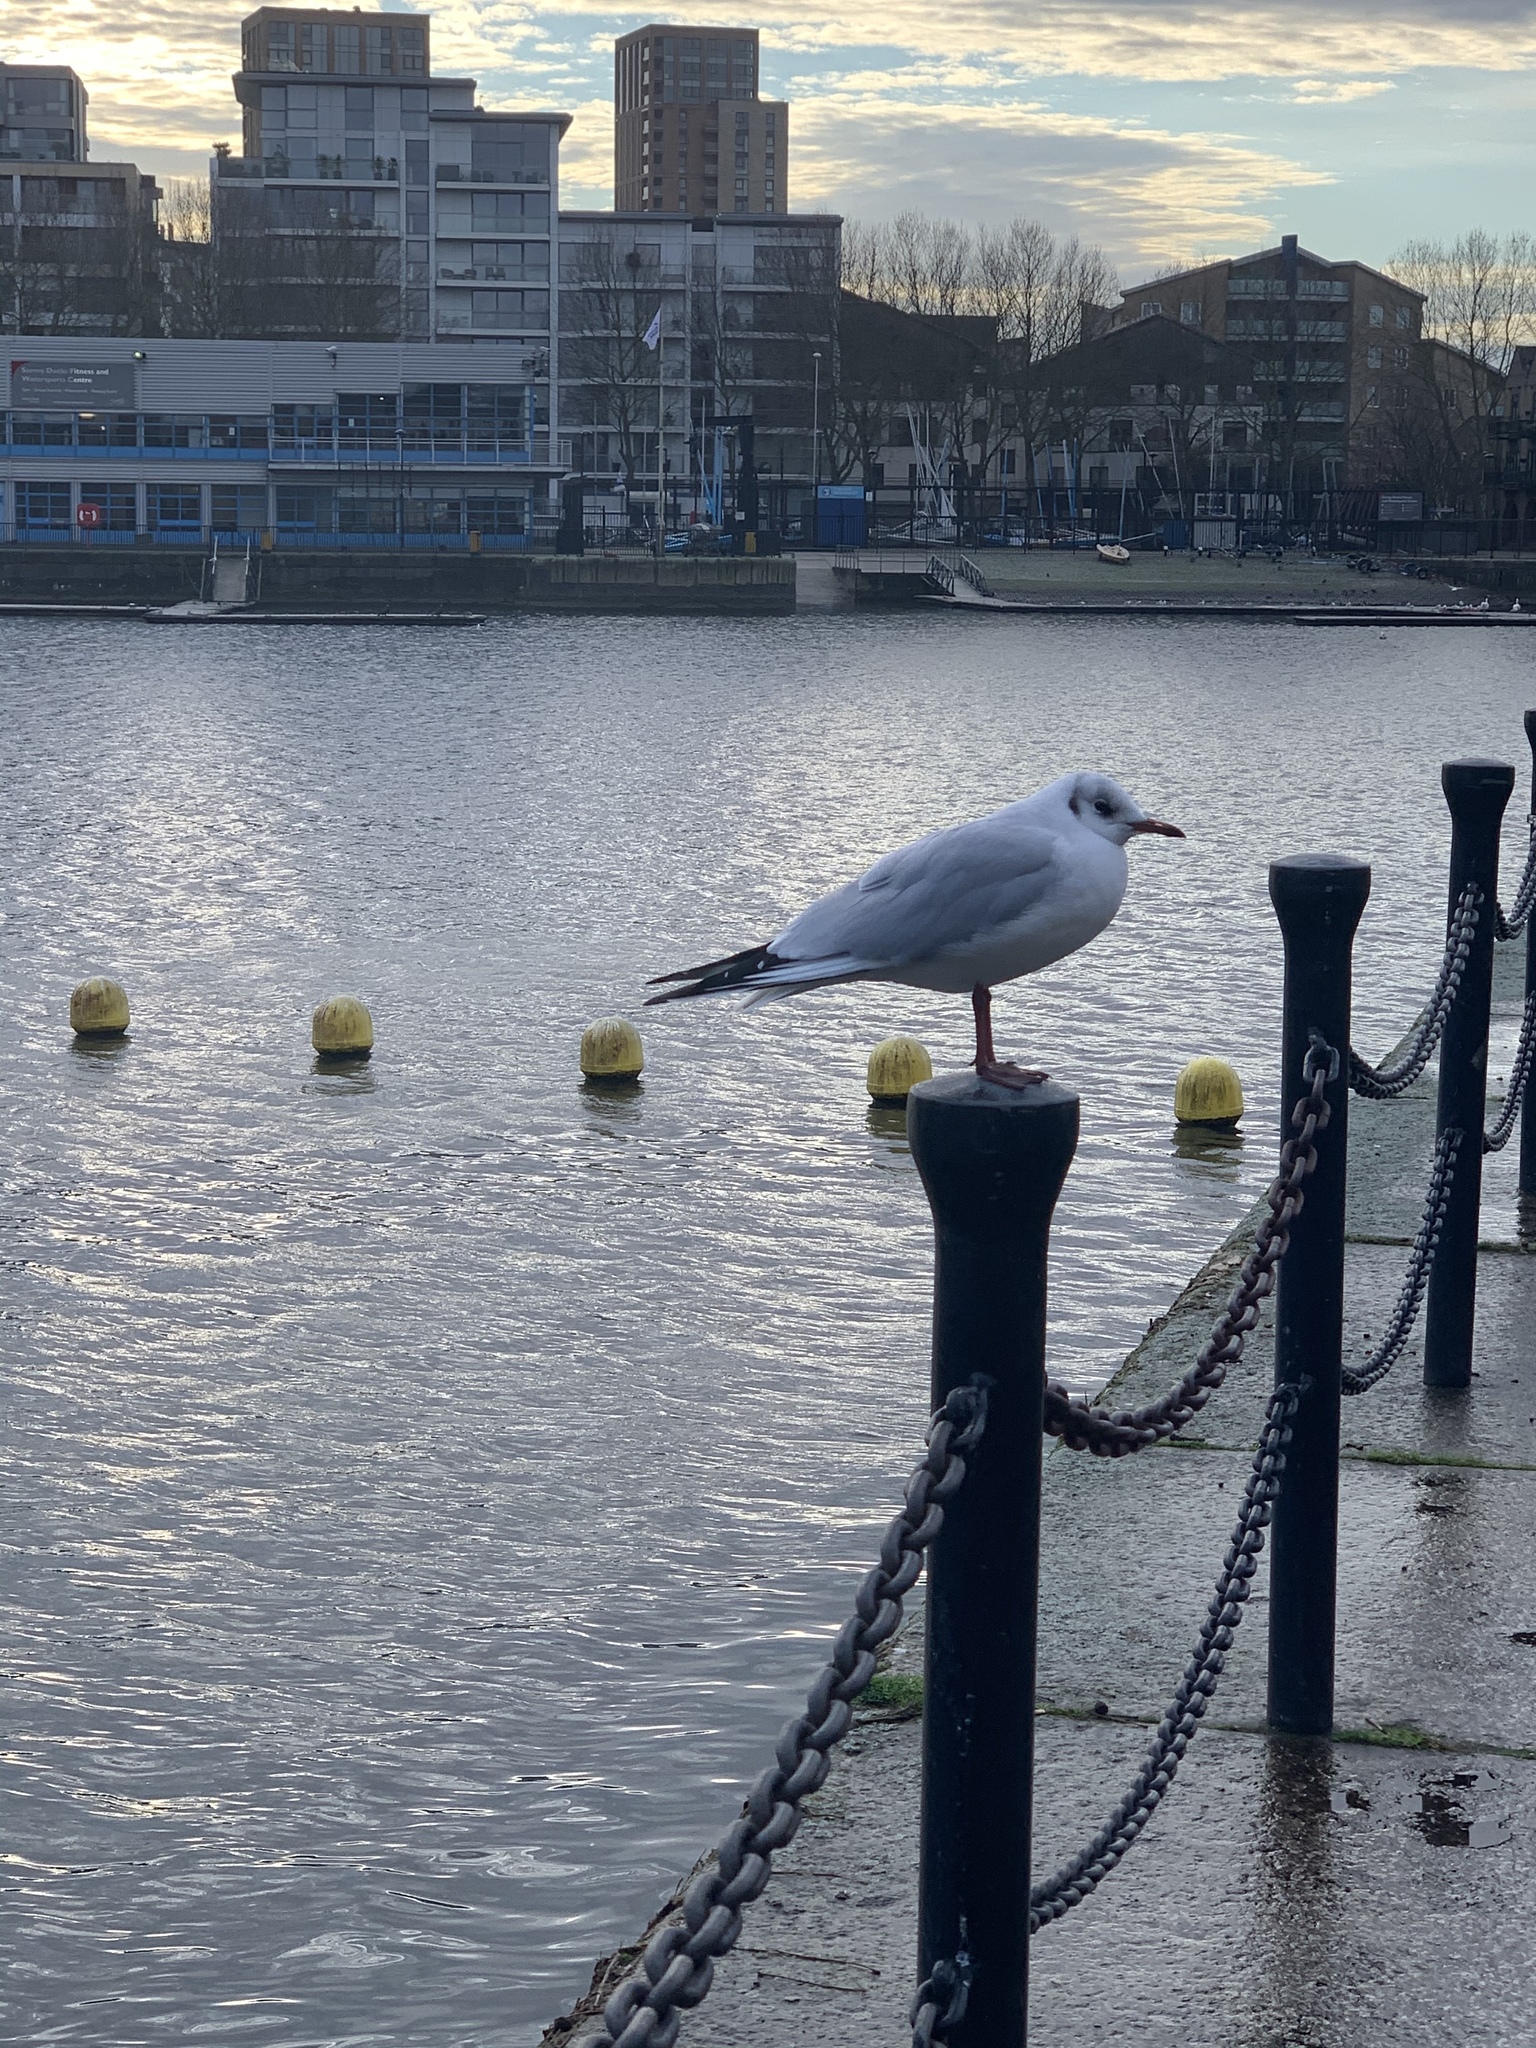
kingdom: Animalia
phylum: Chordata
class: Aves
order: Charadriiformes
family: Laridae
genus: Chroicocephalus
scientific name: Chroicocephalus ridibundus
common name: Black-headed gull
